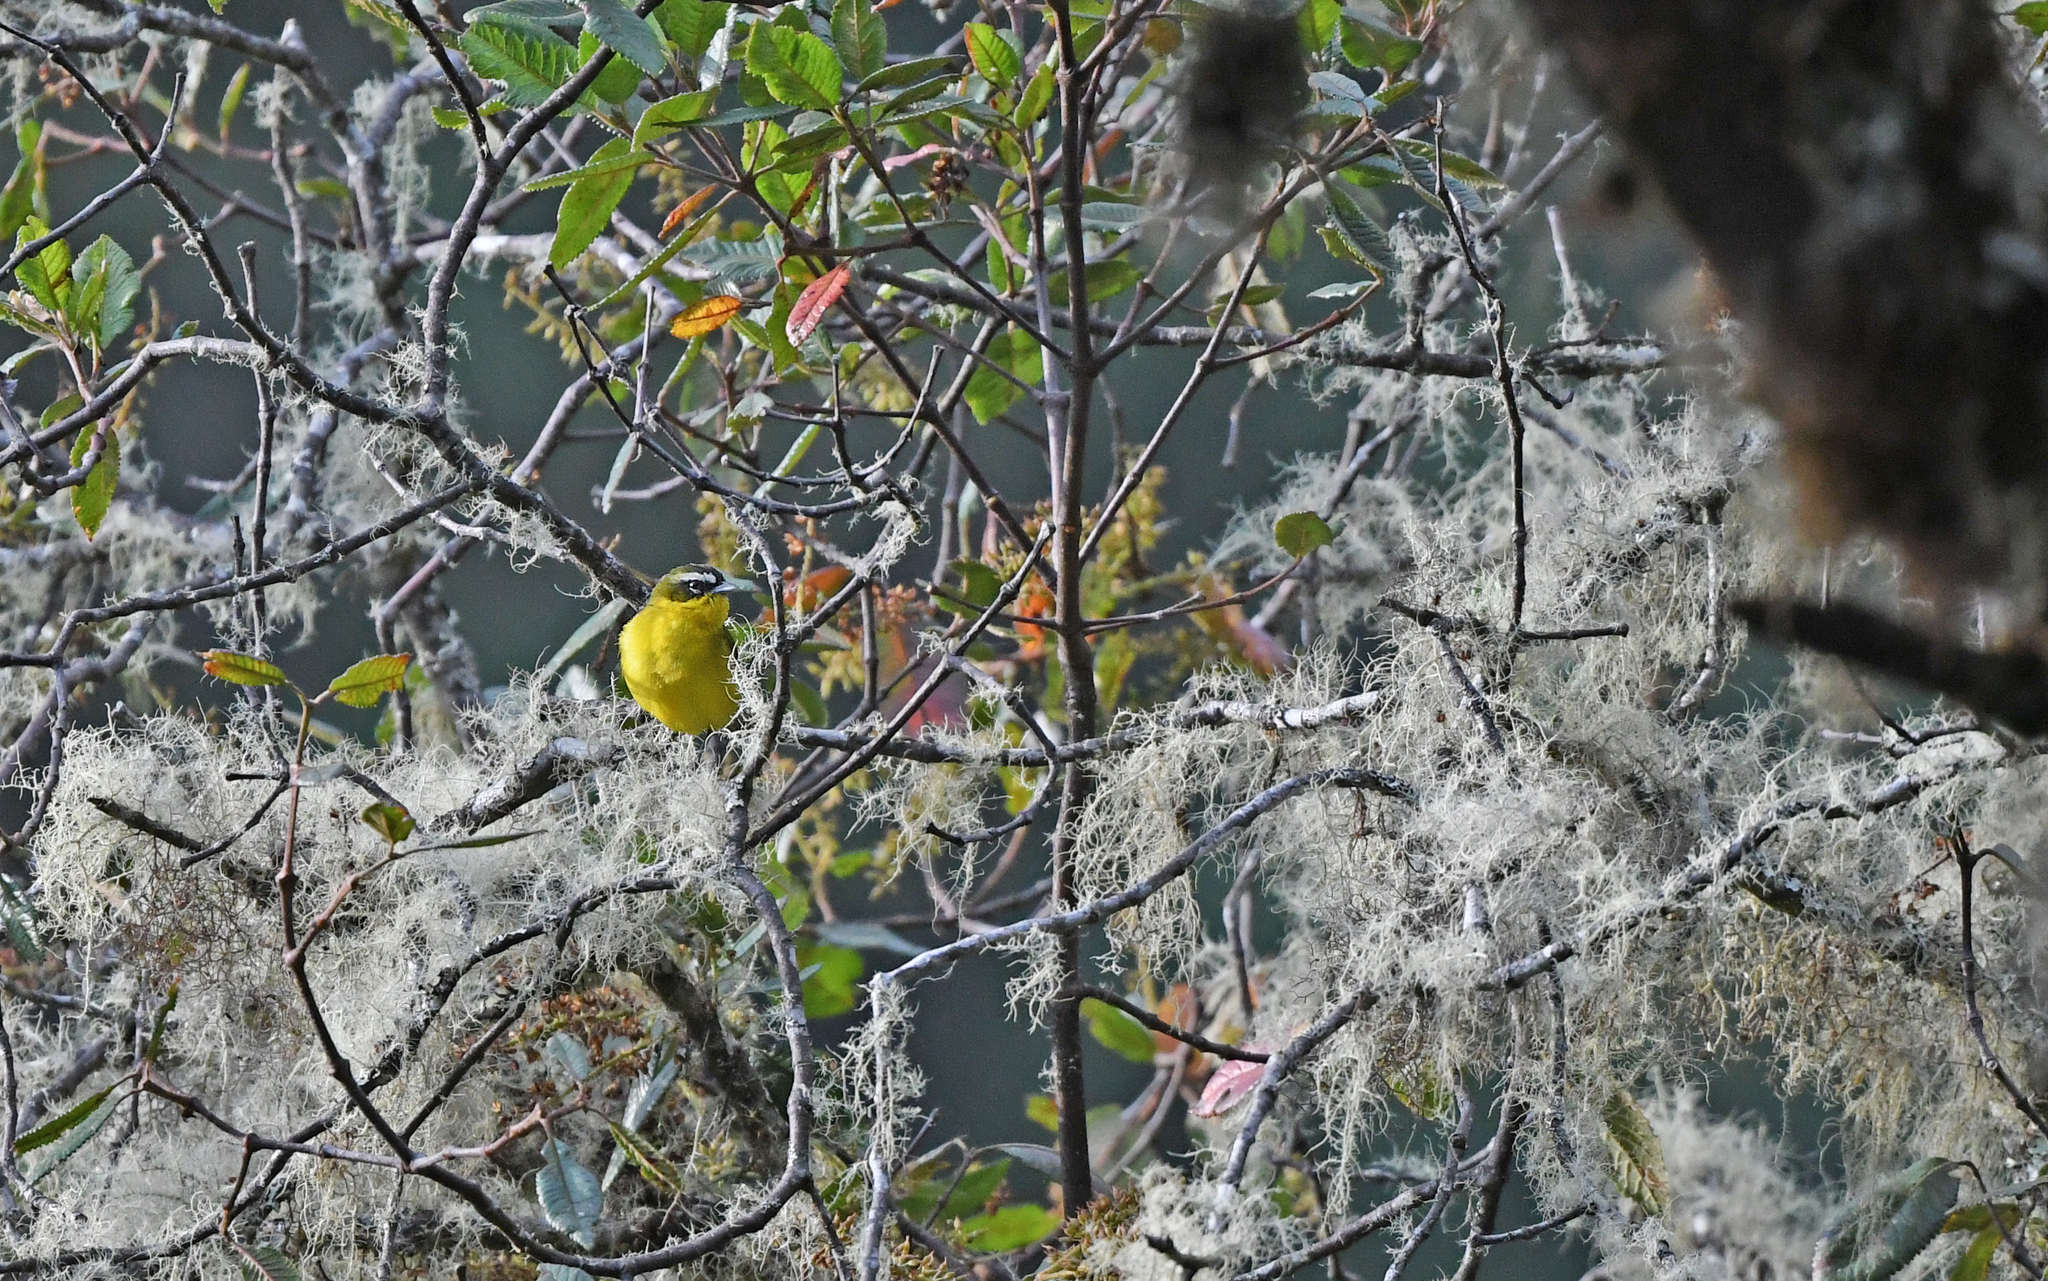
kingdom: Animalia
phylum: Chordata
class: Aves
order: Passeriformes
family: Thraupidae
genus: Thlypopsis
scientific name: Thlypopsis superciliaris
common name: Superciliaried hemispingus
